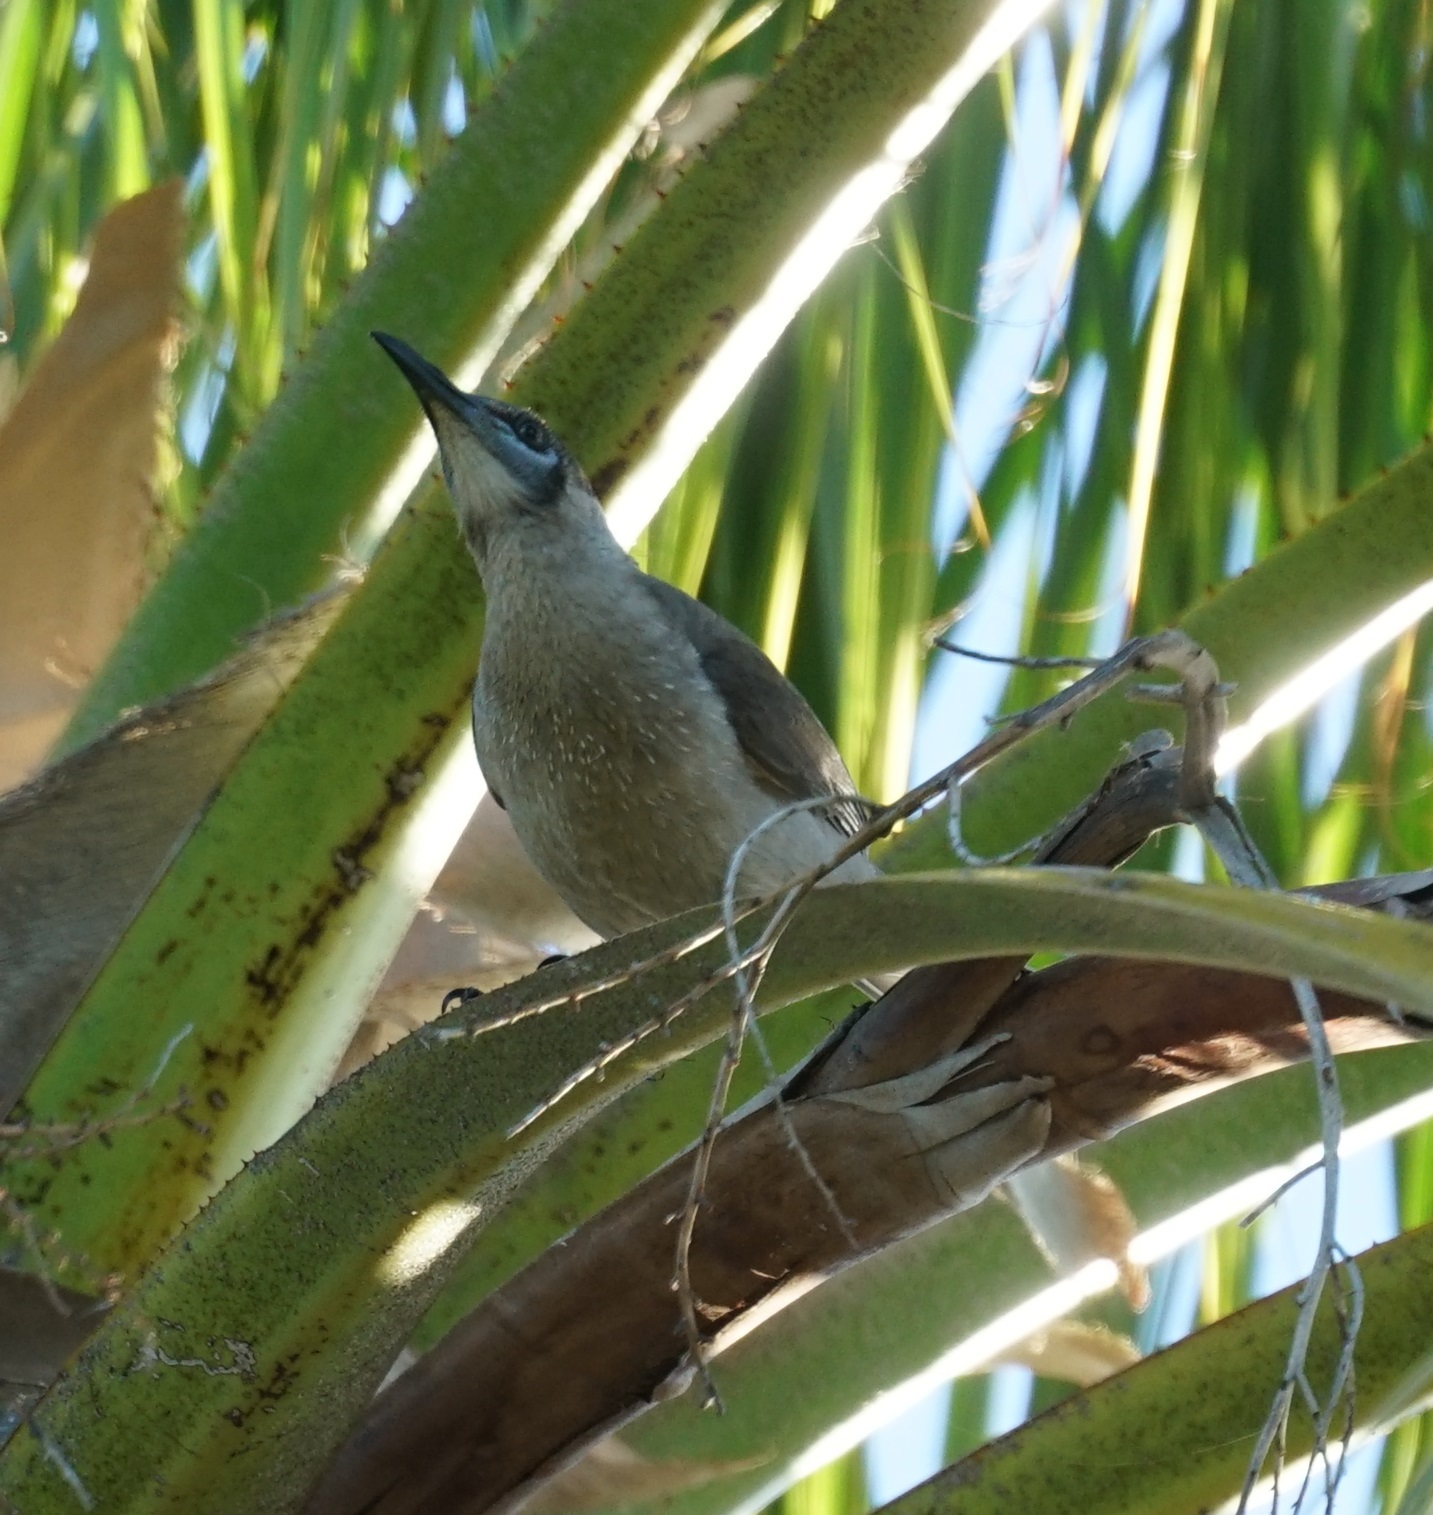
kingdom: Animalia
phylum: Chordata
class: Aves
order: Passeriformes
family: Meliphagidae
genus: Philemon
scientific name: Philemon citreogularis
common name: Little friarbird
